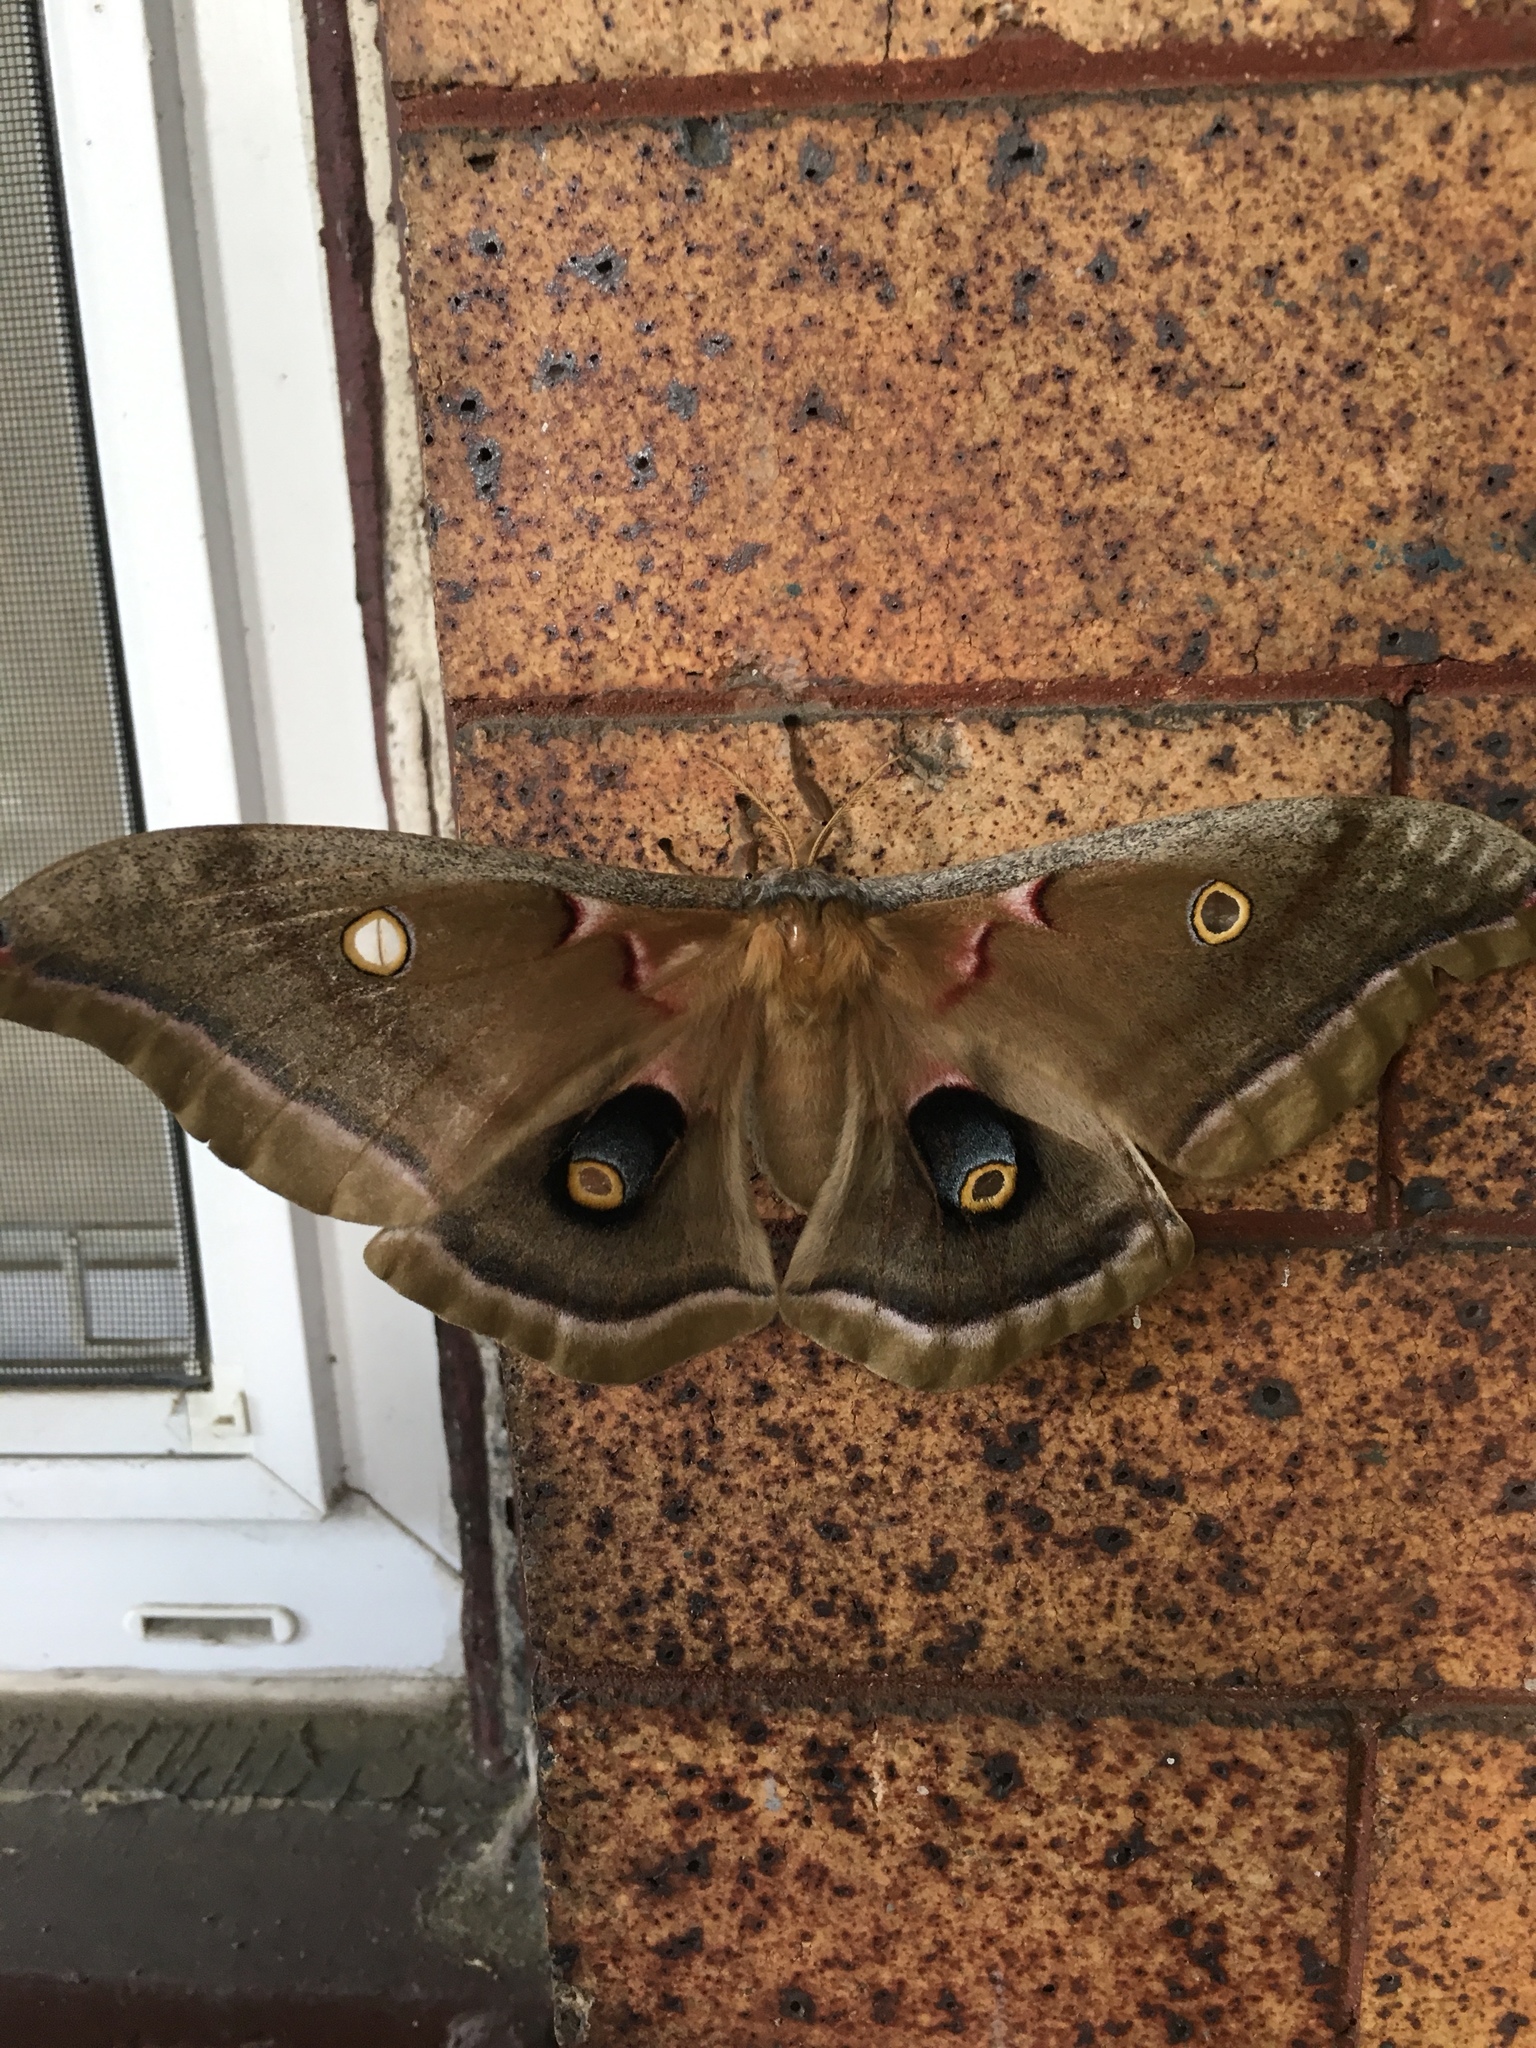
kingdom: Animalia
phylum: Arthropoda
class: Insecta
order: Lepidoptera
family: Saturniidae
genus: Antheraea
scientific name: Antheraea polyphemus
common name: Polyphemus moth
